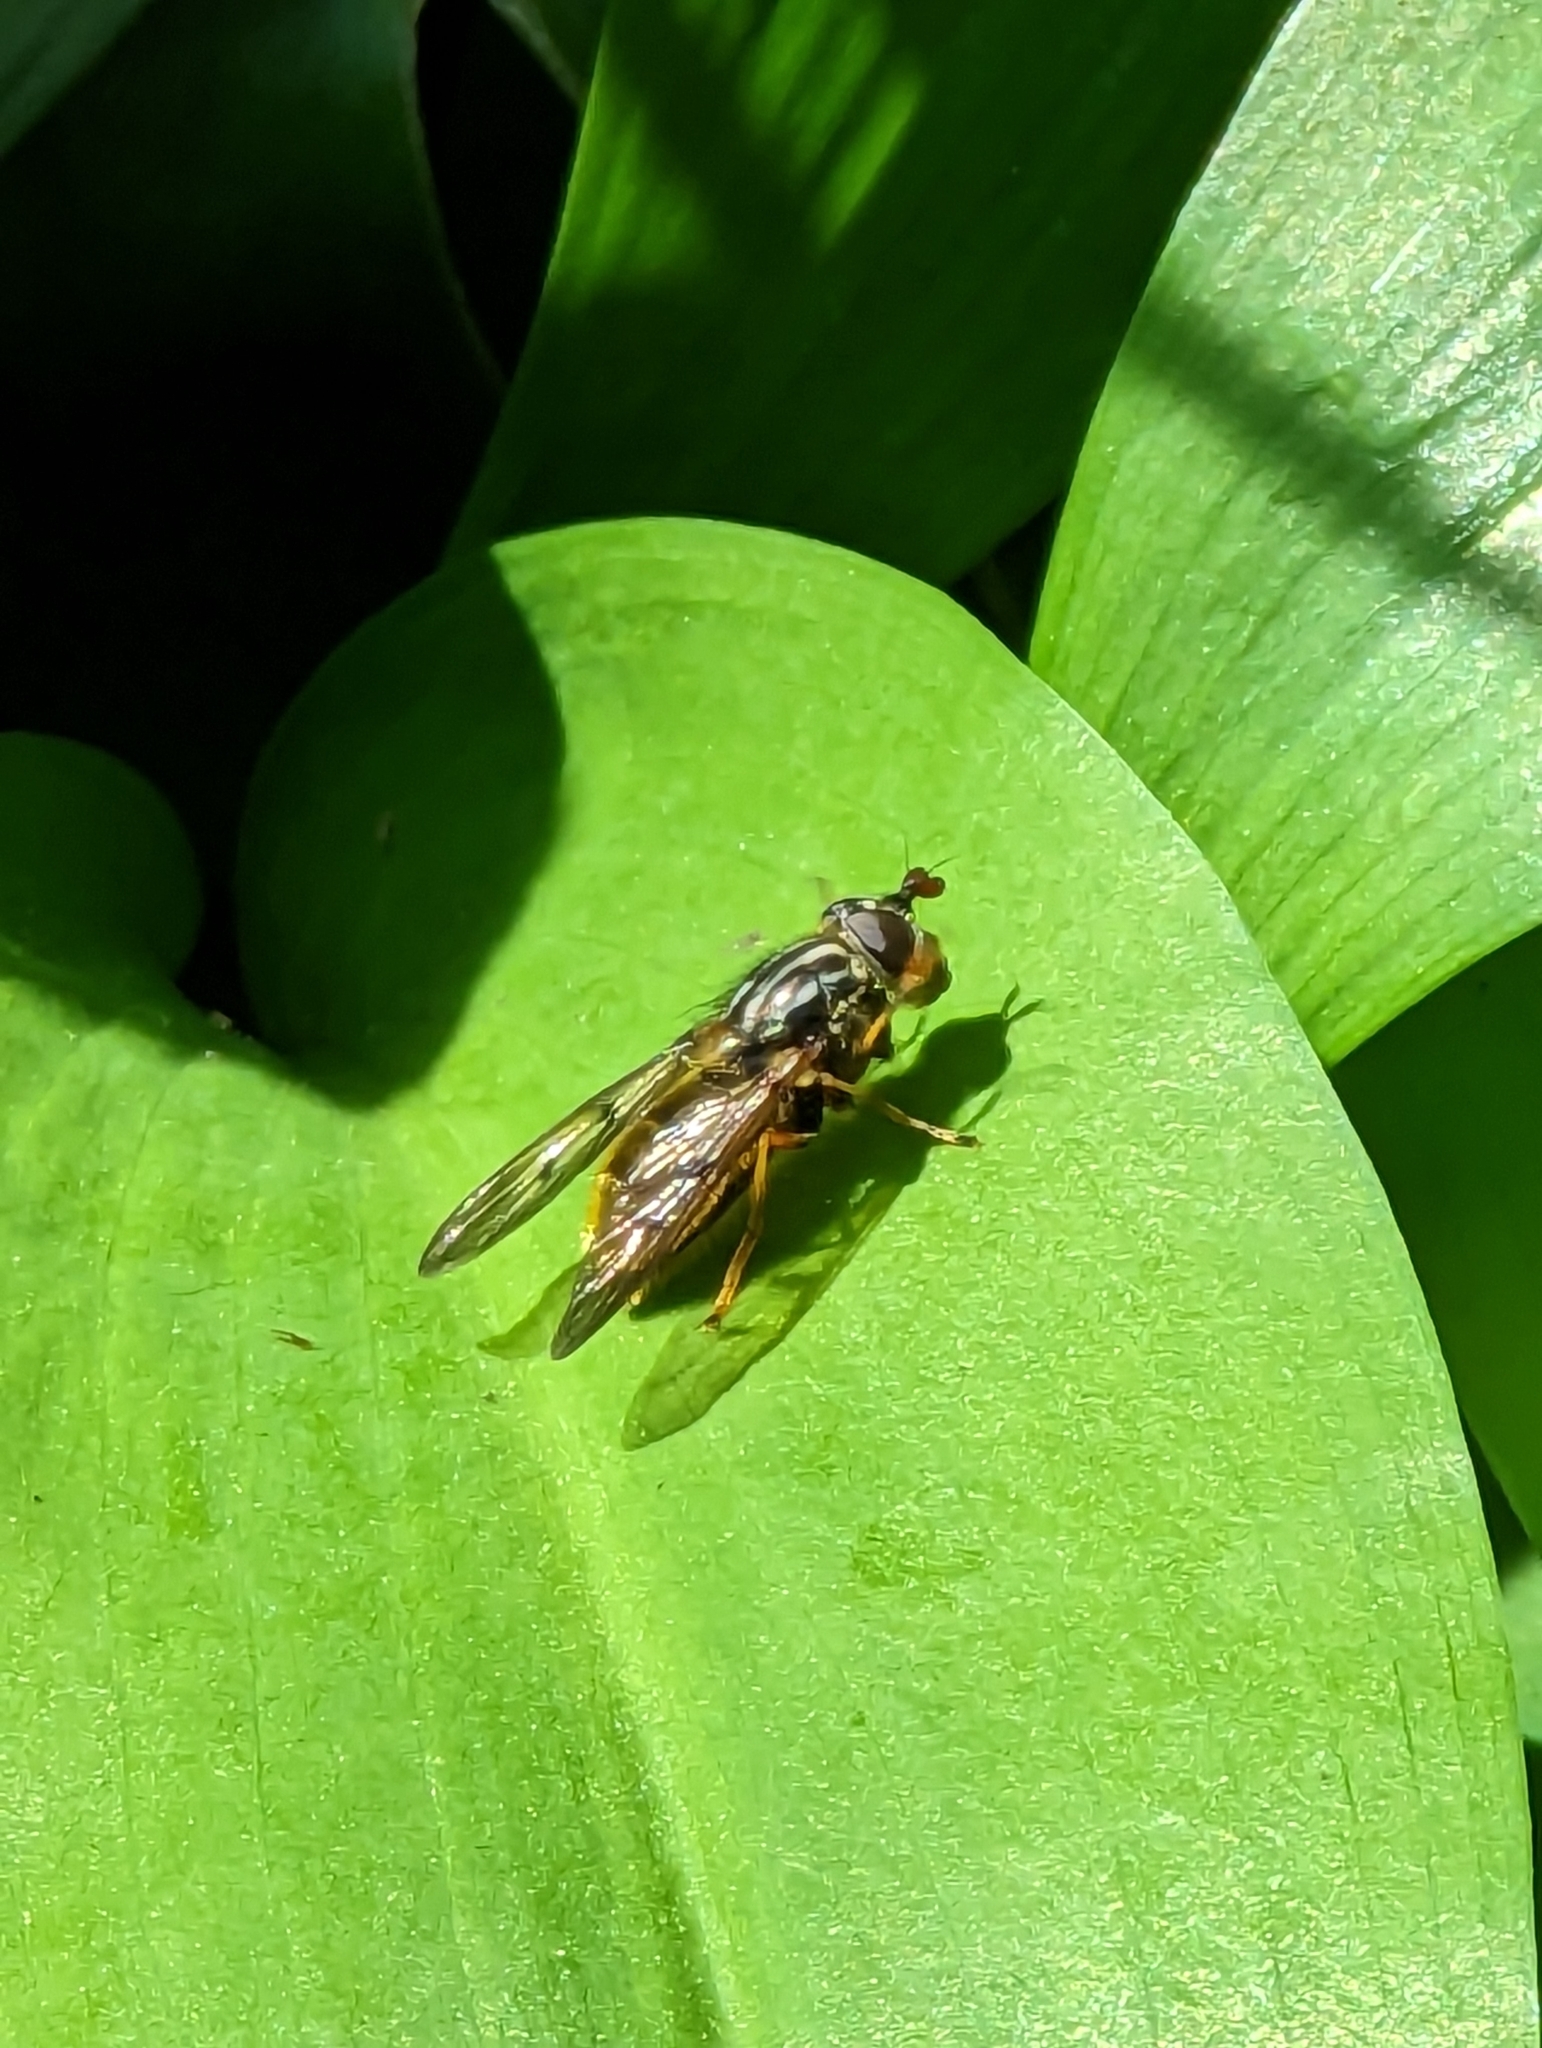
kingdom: Animalia
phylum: Arthropoda
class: Insecta
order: Diptera
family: Syrphidae
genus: Ferdinandea
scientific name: Ferdinandea cuprea
